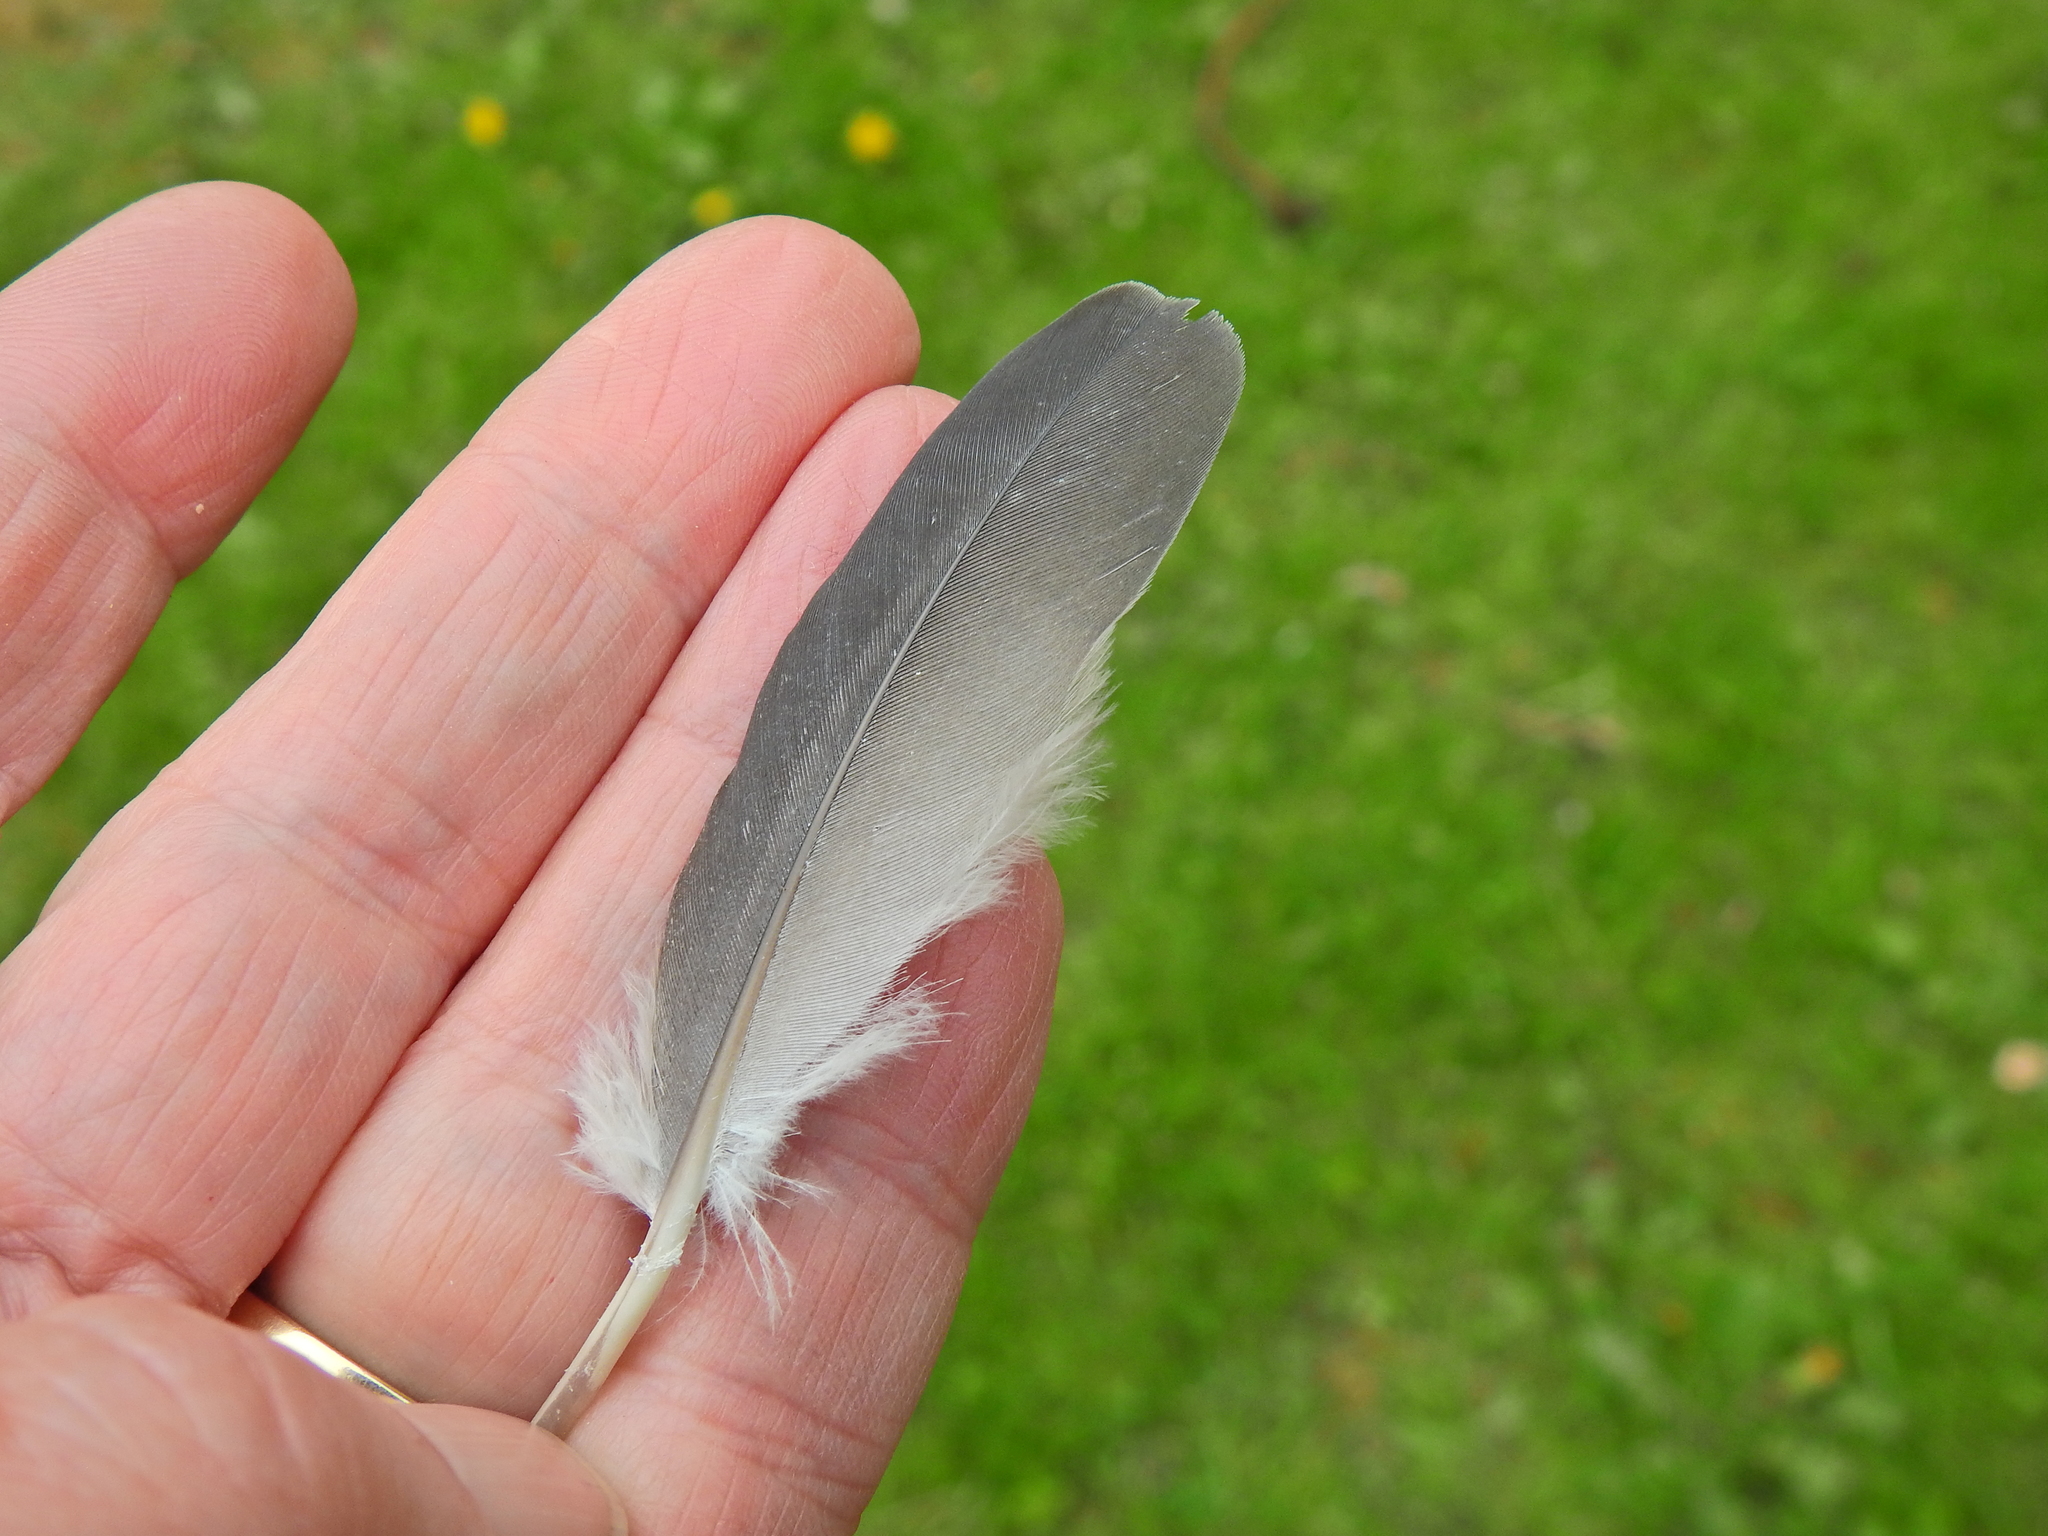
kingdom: Animalia
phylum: Chordata
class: Aves
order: Columbiformes
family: Columbidae
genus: Columba
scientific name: Columba palumbus
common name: Common wood pigeon
